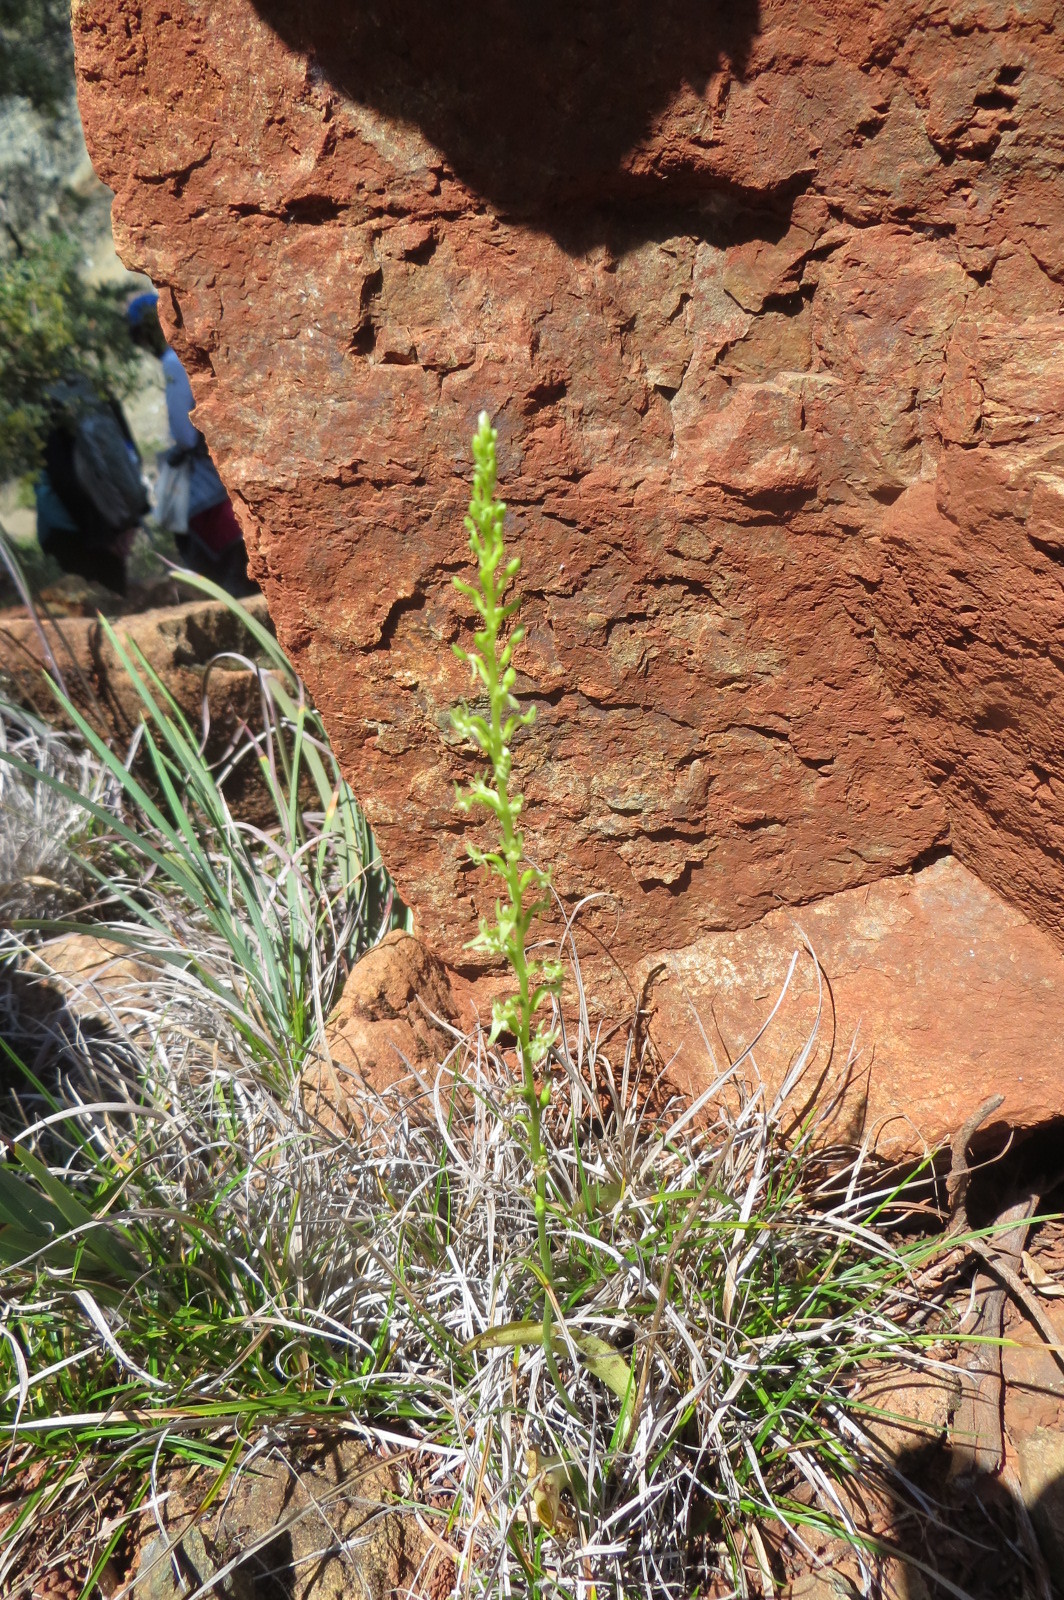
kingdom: Plantae
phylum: Tracheophyta
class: Liliopsida
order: Asparagales
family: Orchidaceae
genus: Platanthera
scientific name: Platanthera leptopetala
